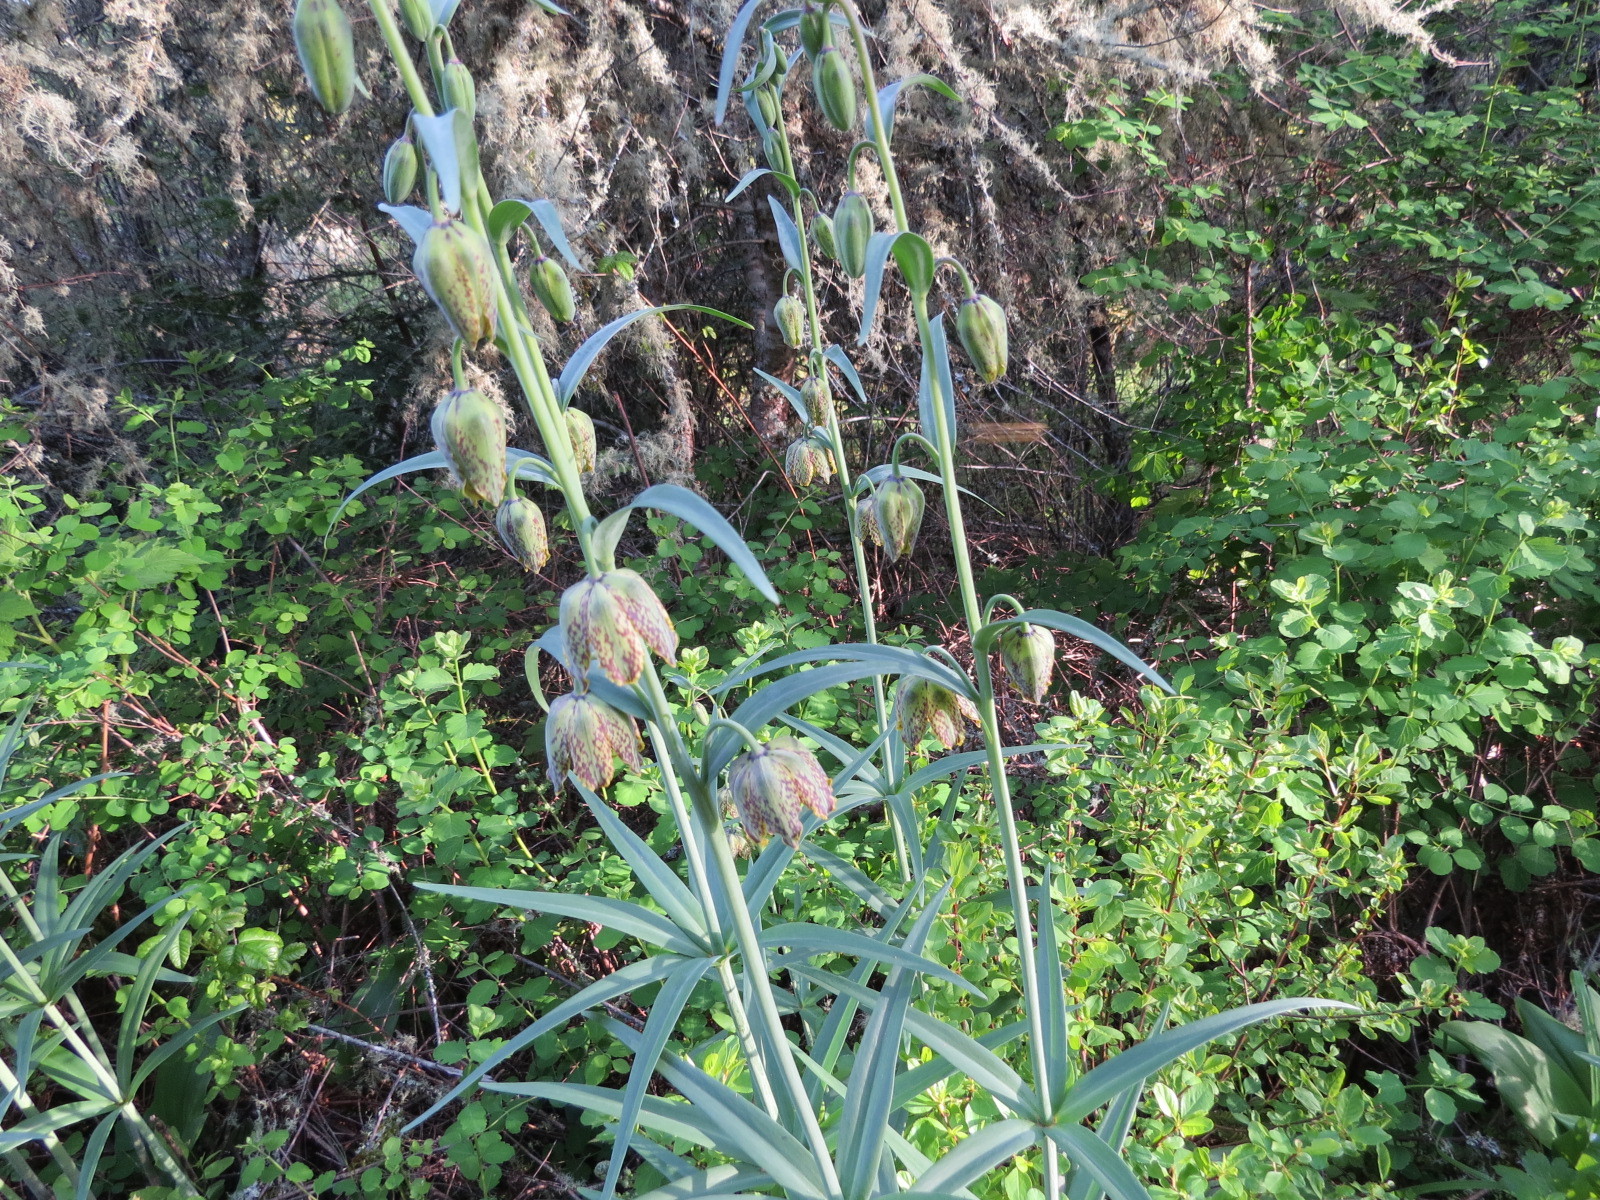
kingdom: Plantae
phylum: Tracheophyta
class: Liliopsida
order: Liliales
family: Liliaceae
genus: Fritillaria
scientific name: Fritillaria affinis
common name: Ojai fritillary
